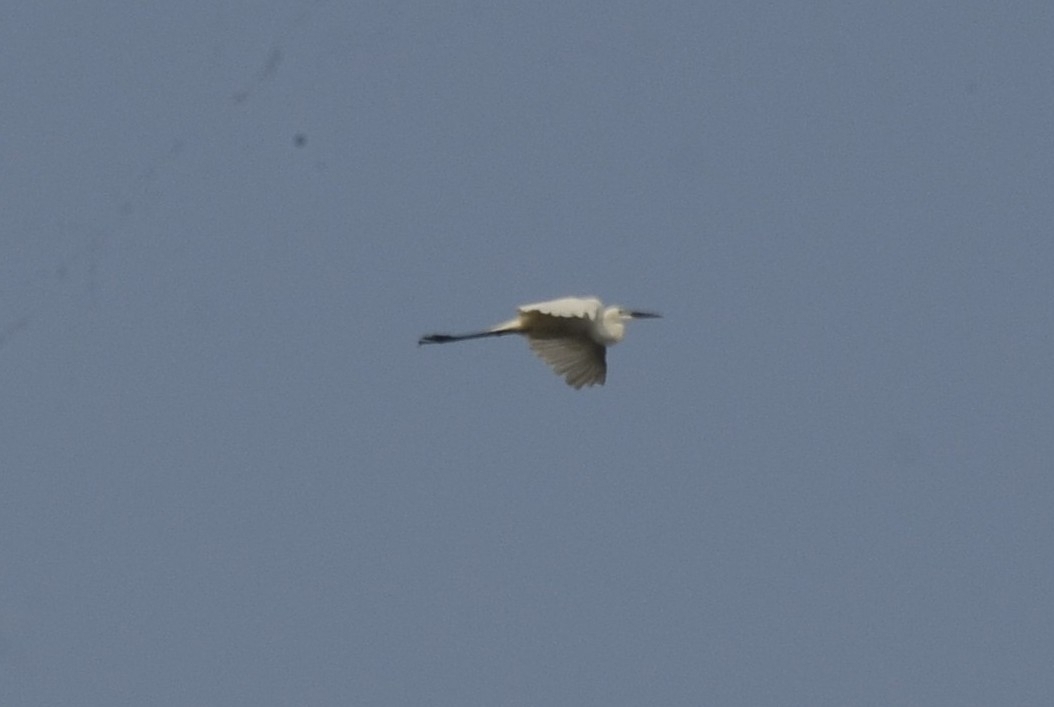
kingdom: Animalia
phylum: Chordata
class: Aves
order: Pelecaniformes
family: Ardeidae
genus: Egretta
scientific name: Egretta garzetta
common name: Little egret
